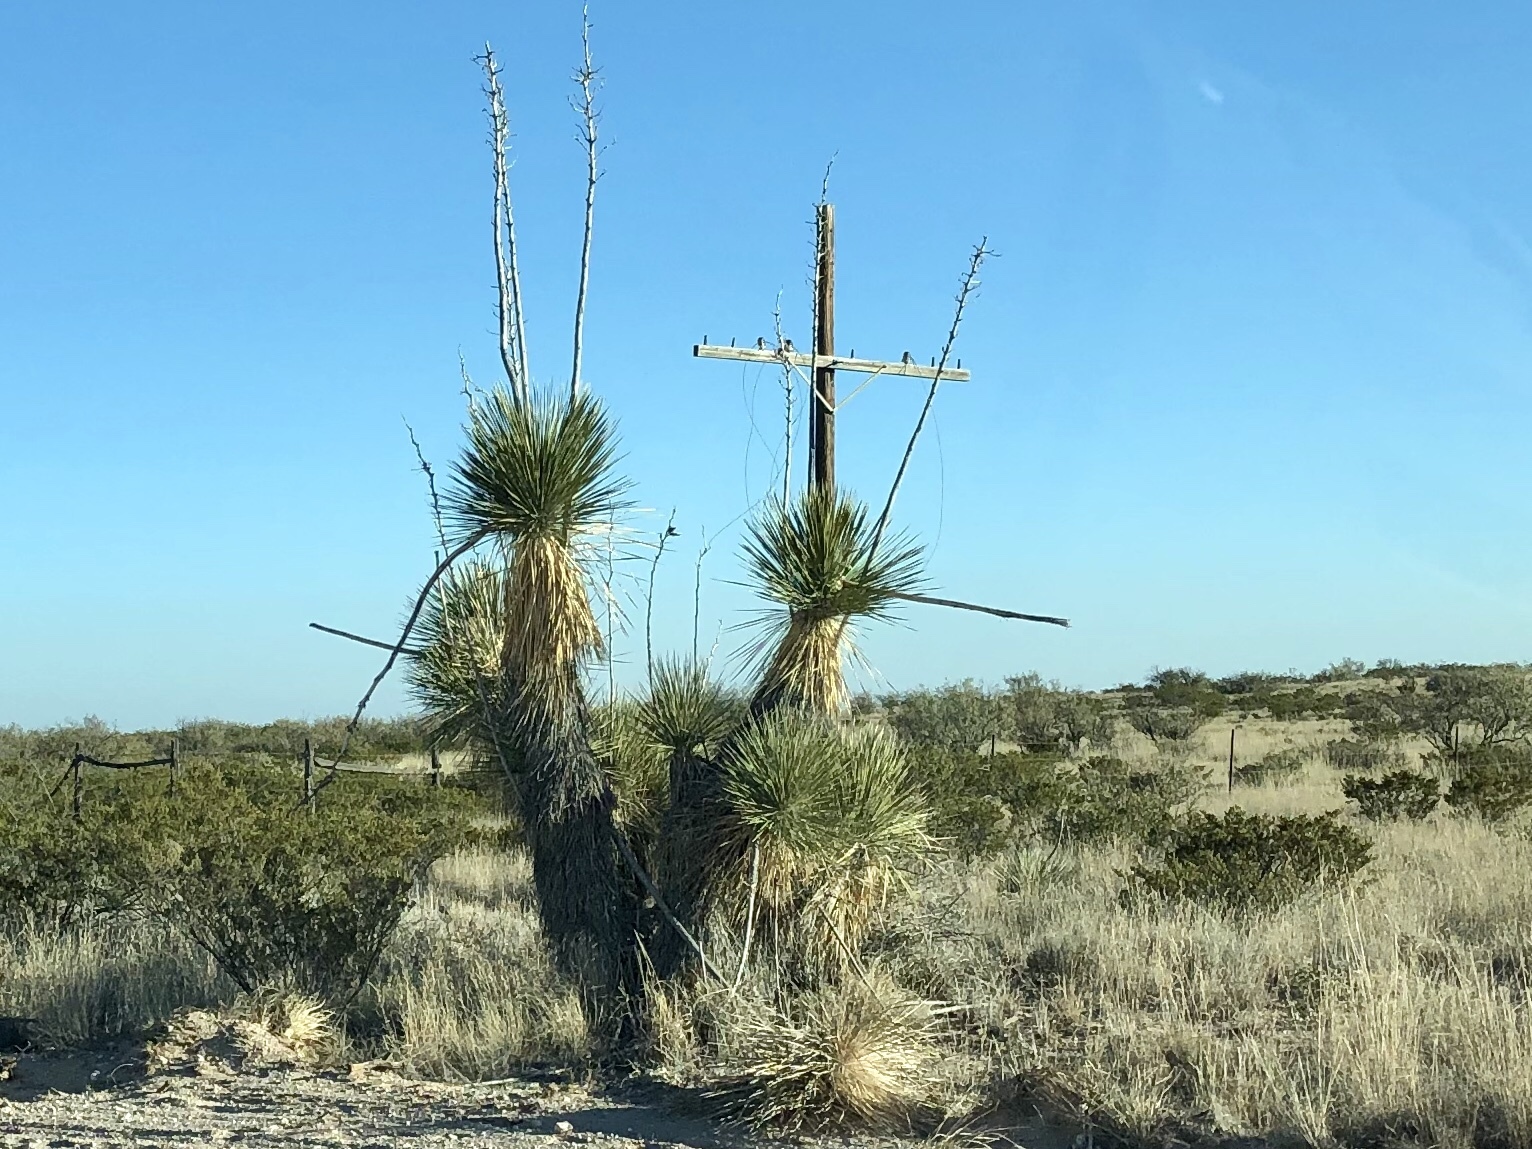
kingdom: Plantae
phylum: Tracheophyta
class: Liliopsida
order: Asparagales
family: Asparagaceae
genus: Yucca
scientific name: Yucca elata
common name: Palmella
